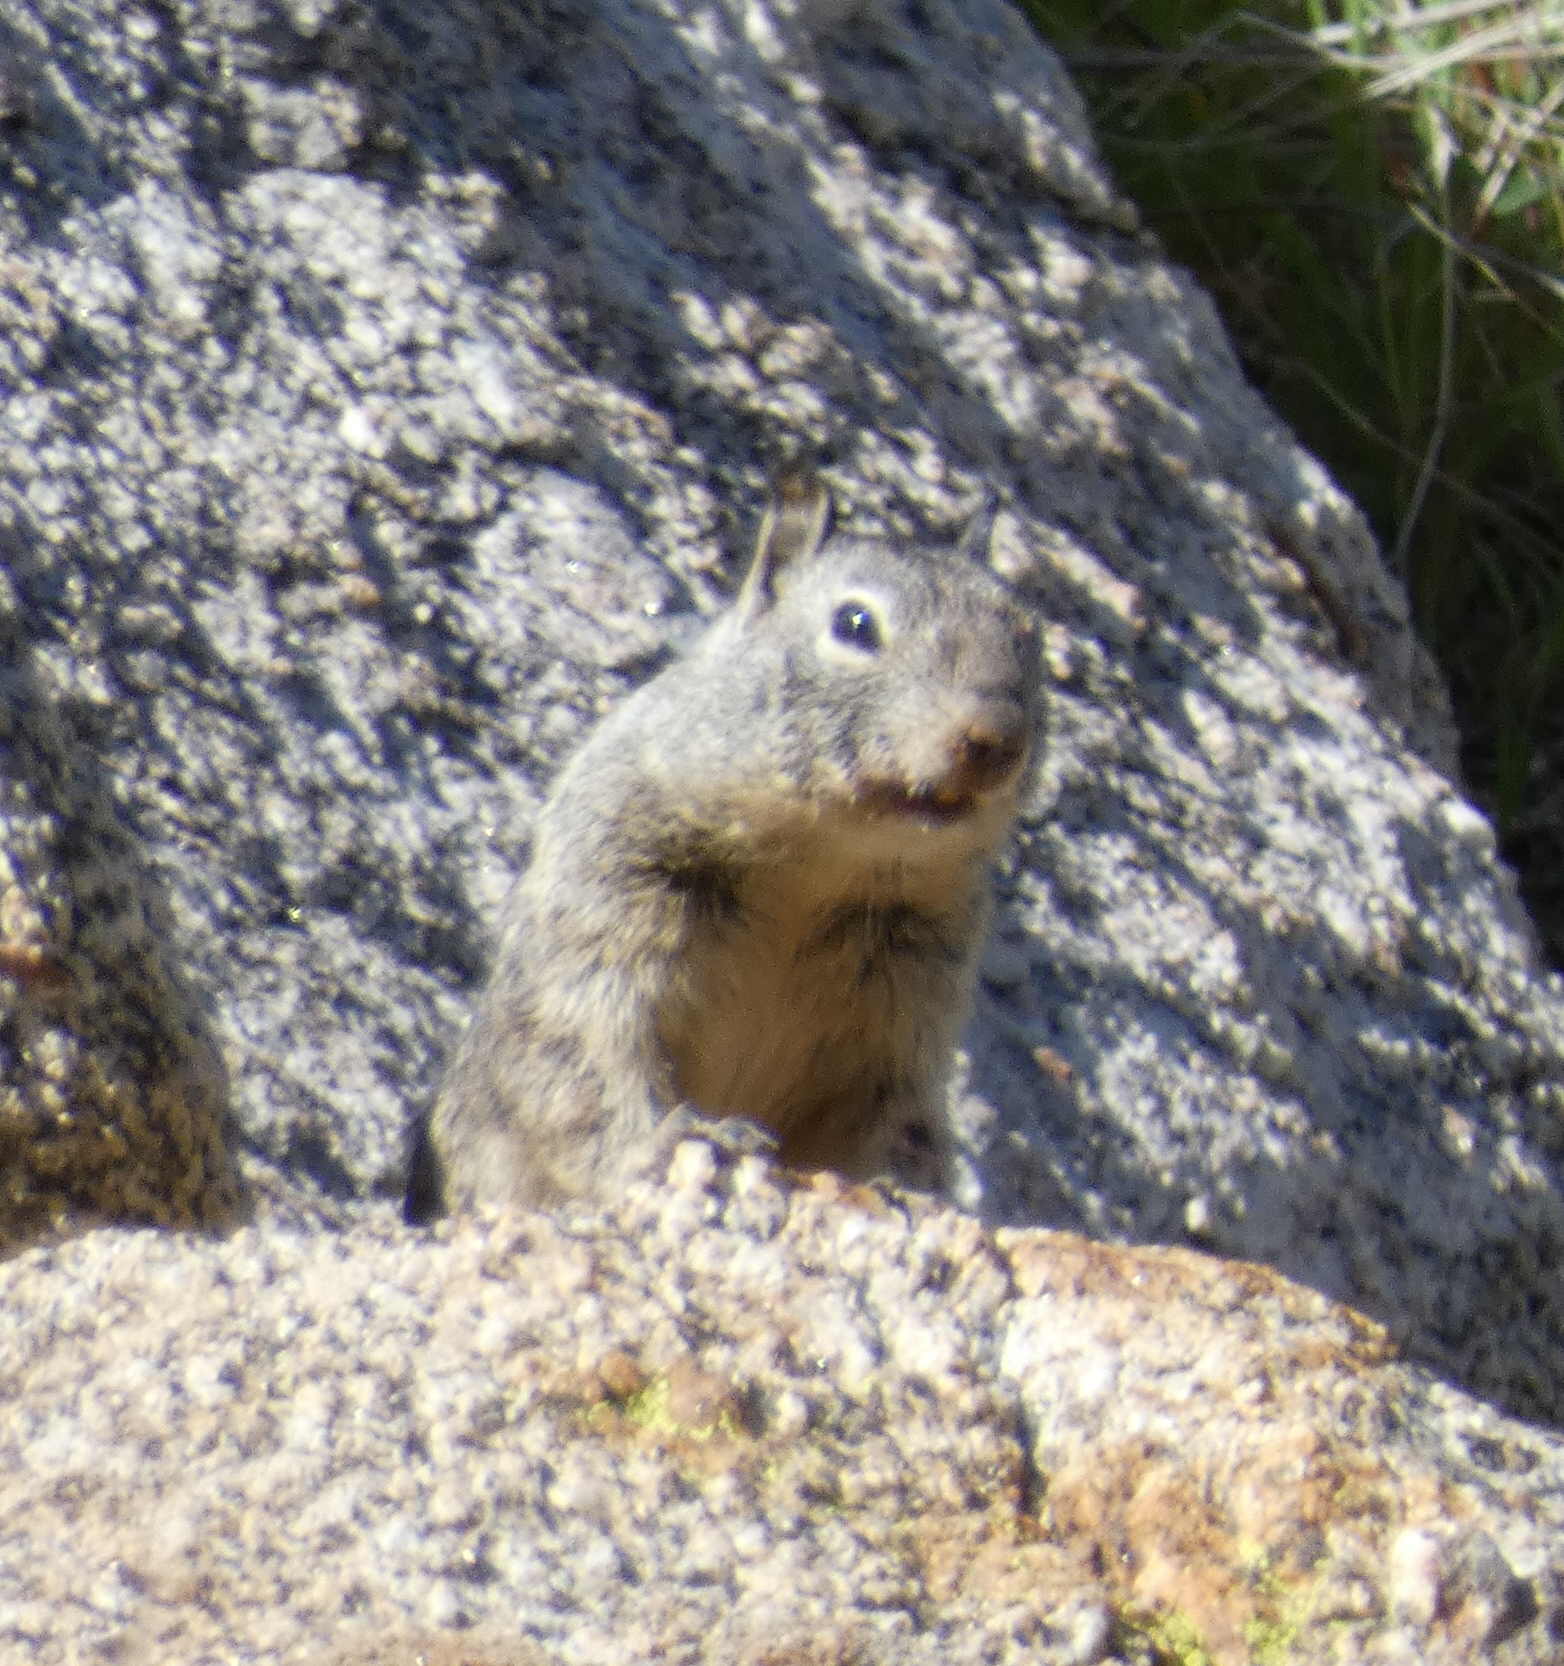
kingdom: Animalia
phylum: Chordata
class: Mammalia
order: Rodentia
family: Sciuridae
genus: Otospermophilus
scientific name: Otospermophilus beecheyi
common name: California ground squirrel
